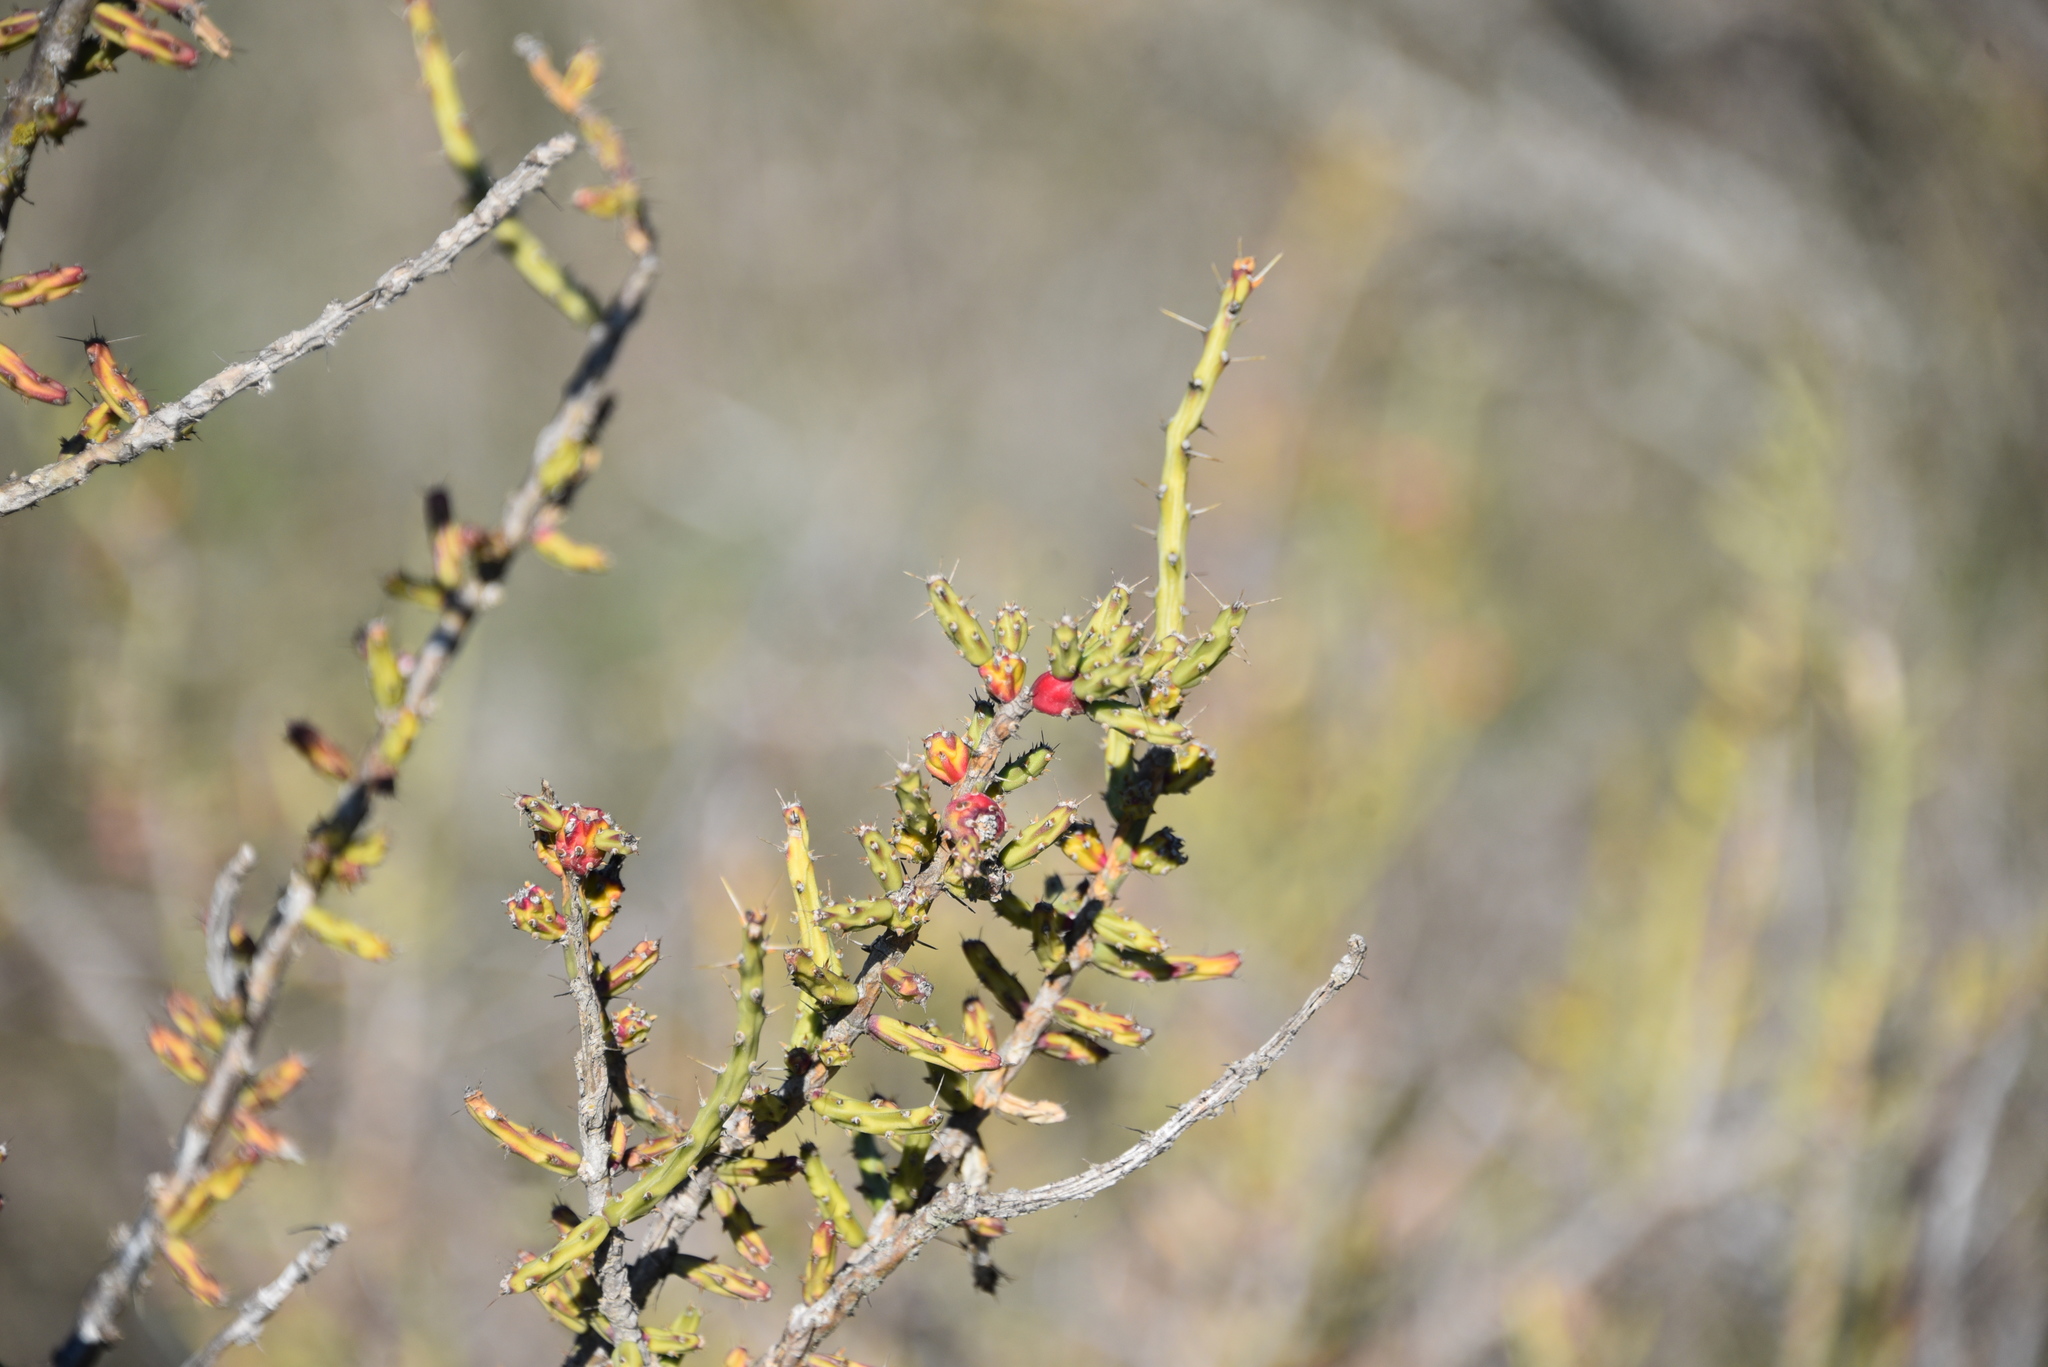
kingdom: Plantae
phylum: Tracheophyta
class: Magnoliopsida
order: Caryophyllales
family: Cactaceae
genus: Cylindropuntia
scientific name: Cylindropuntia leptocaulis
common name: Christmas cactus
